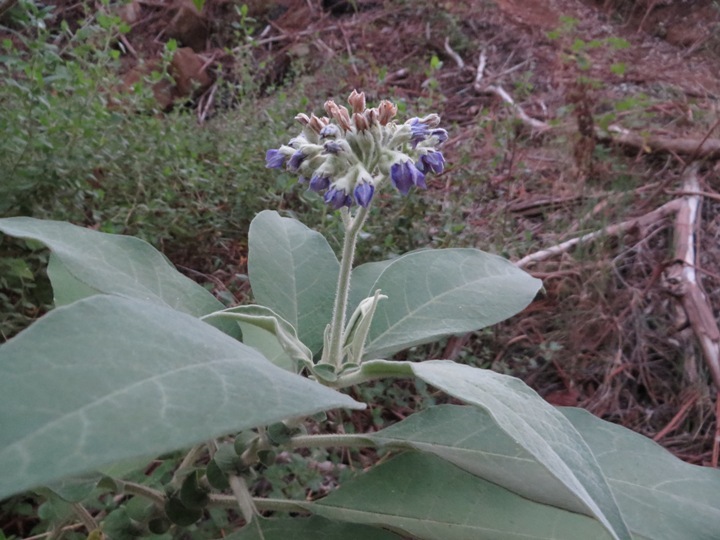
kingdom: Plantae
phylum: Tracheophyta
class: Magnoliopsida
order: Solanales
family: Solanaceae
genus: Solanum
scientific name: Solanum mauritianum
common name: Earleaf nightshade
